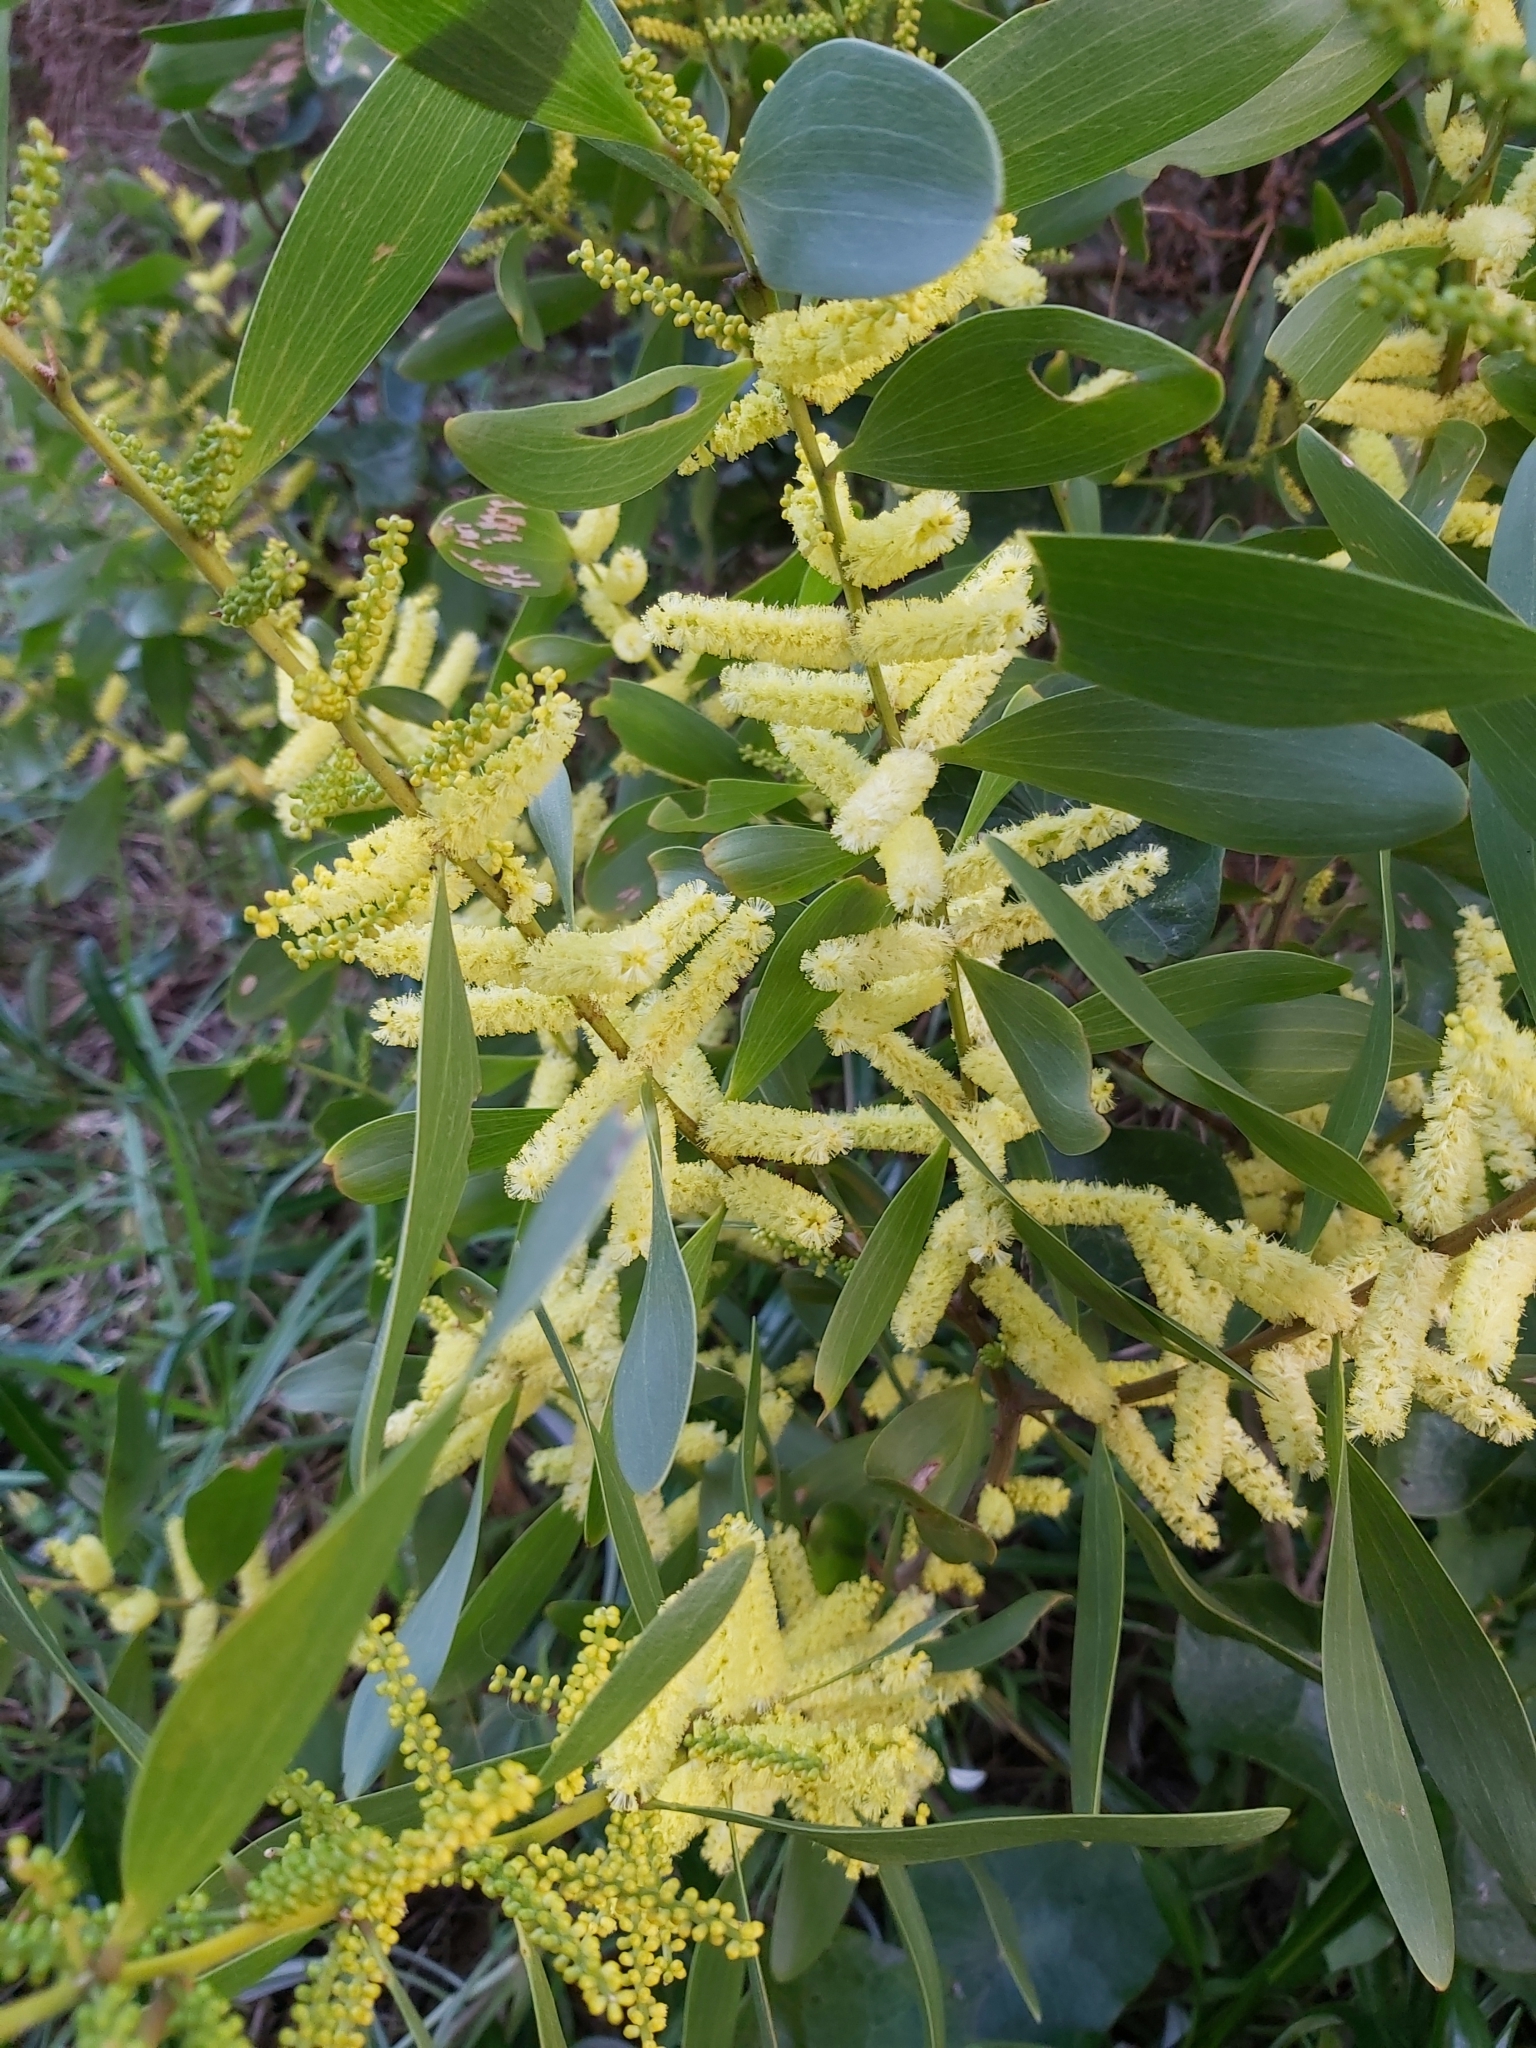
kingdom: Plantae
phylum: Tracheophyta
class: Magnoliopsida
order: Fabales
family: Fabaceae
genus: Acacia
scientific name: Acacia longifolia
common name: Sydney golden wattle
